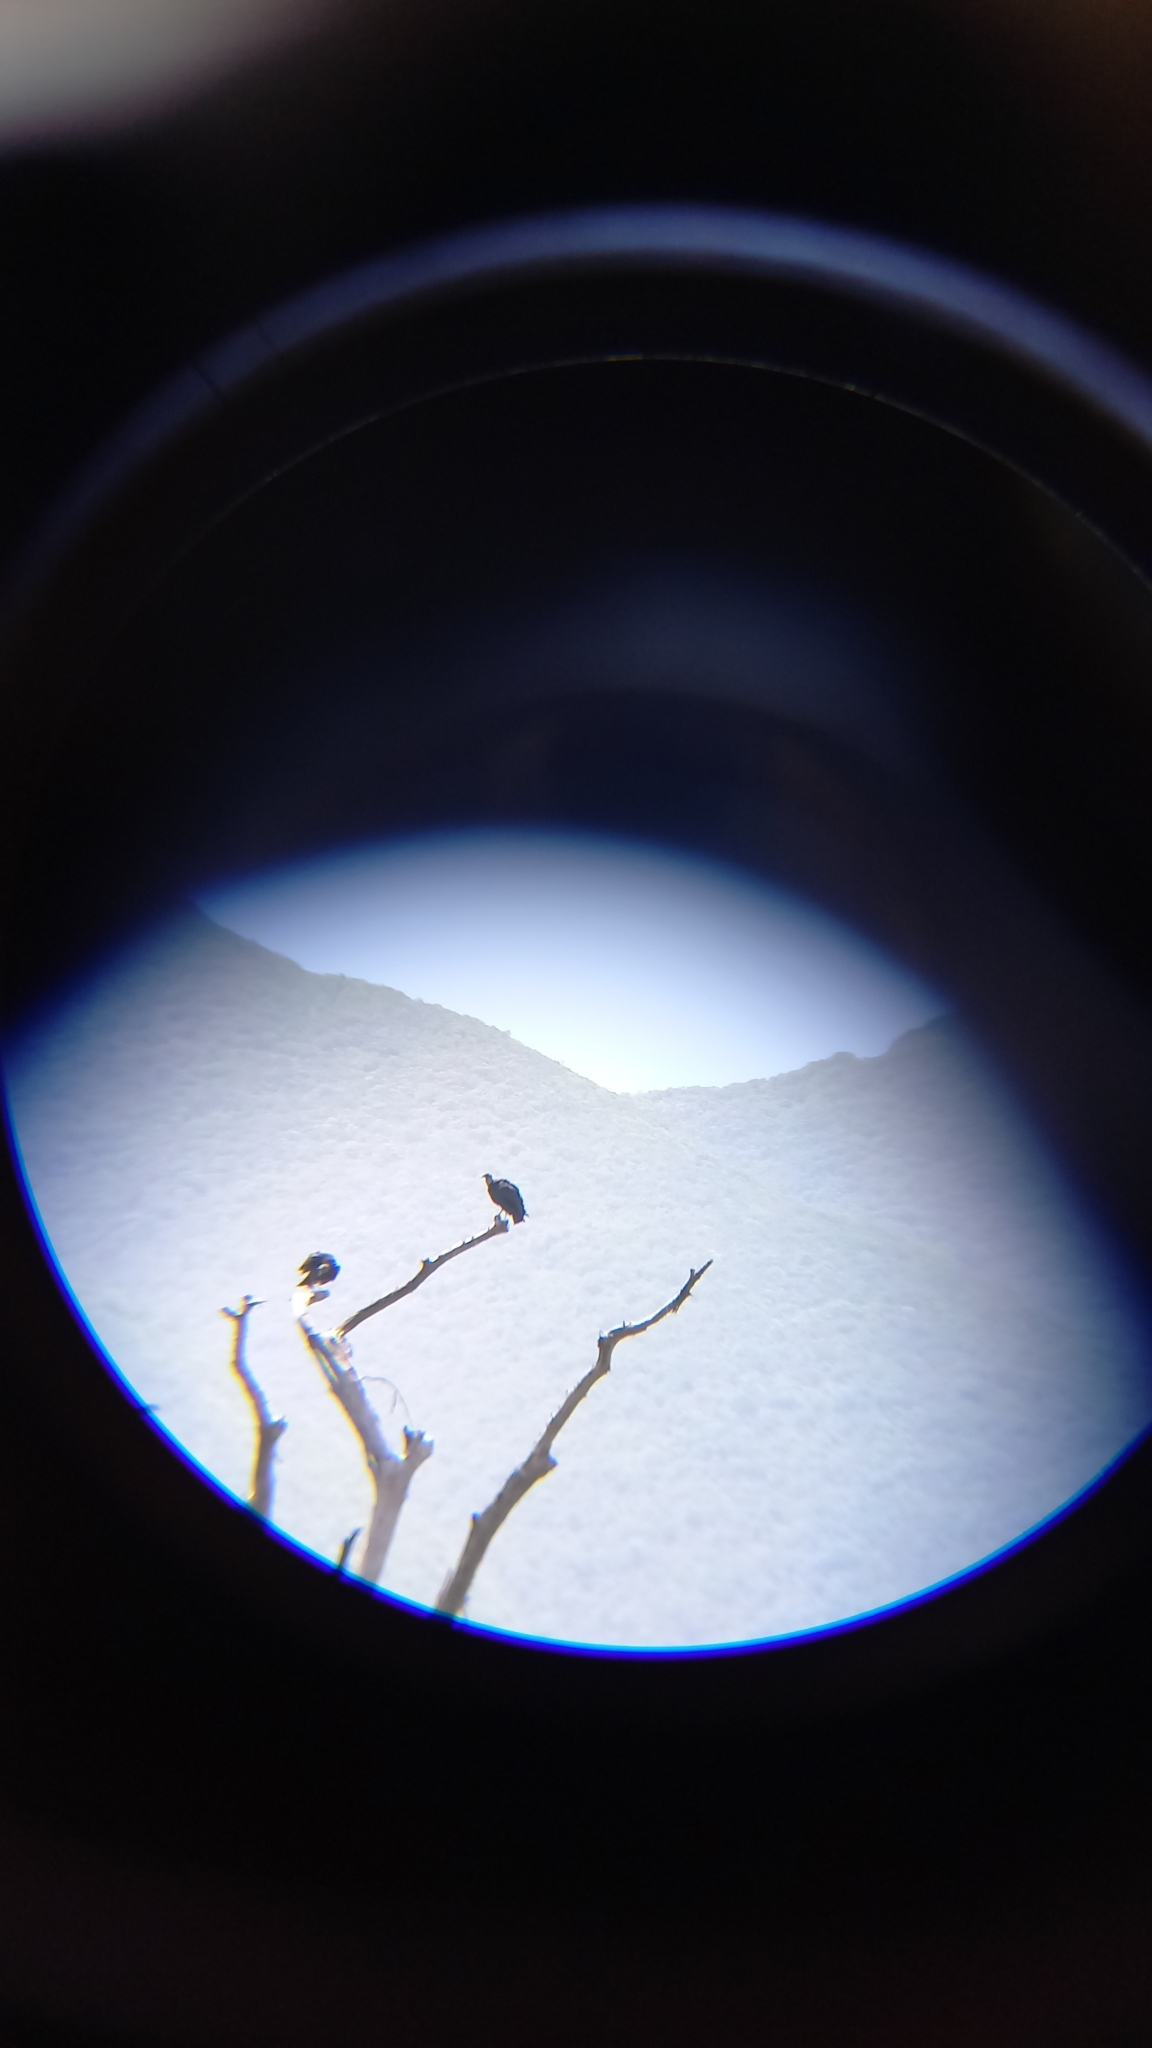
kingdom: Animalia
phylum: Chordata
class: Aves
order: Accipitriformes
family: Cathartidae
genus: Coragyps
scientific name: Coragyps atratus
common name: Black vulture
